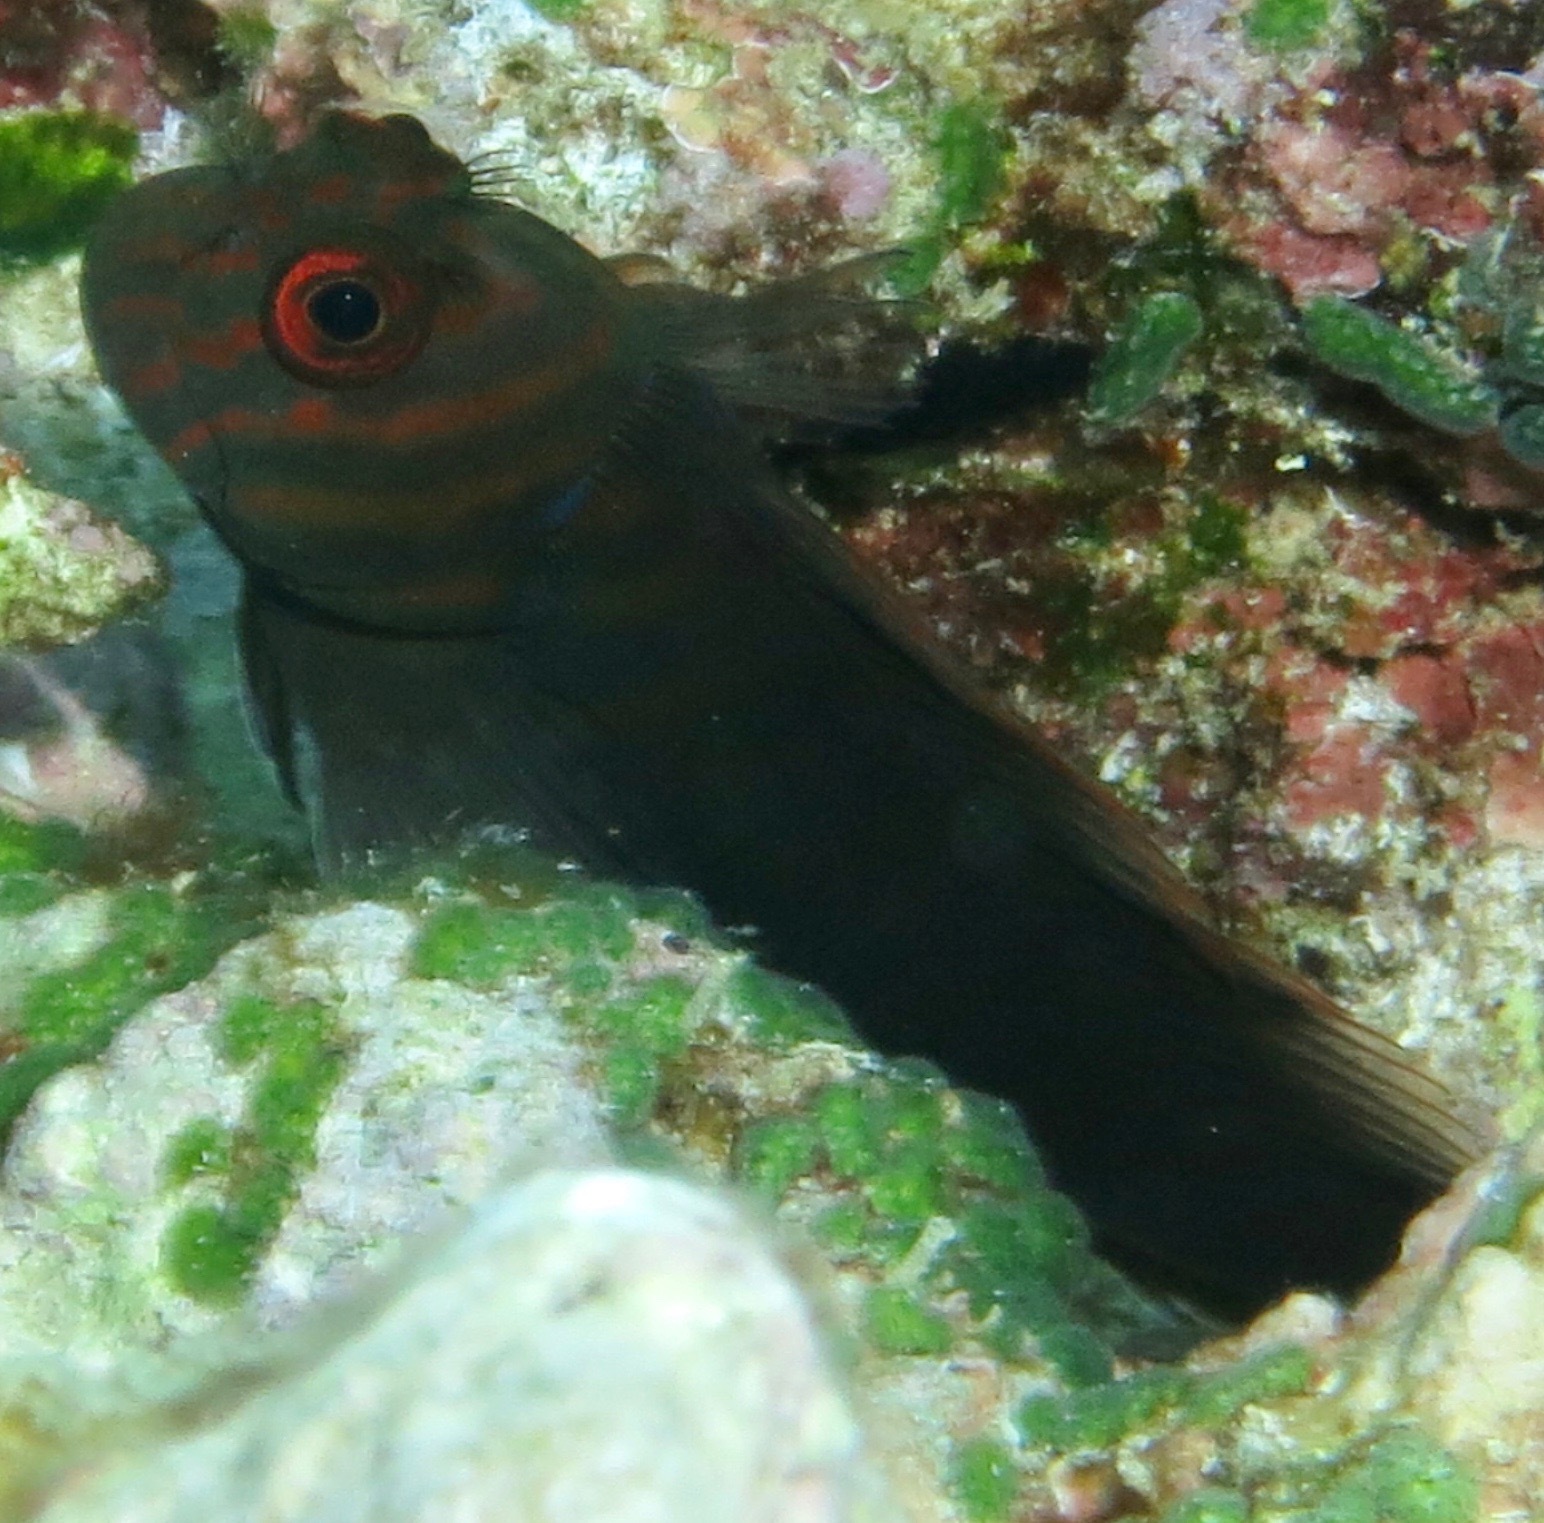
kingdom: Animalia
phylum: Chordata
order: Perciformes
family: Blenniidae
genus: Cirripectes
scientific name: Cirripectes castaneus
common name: Chestnut blenny
